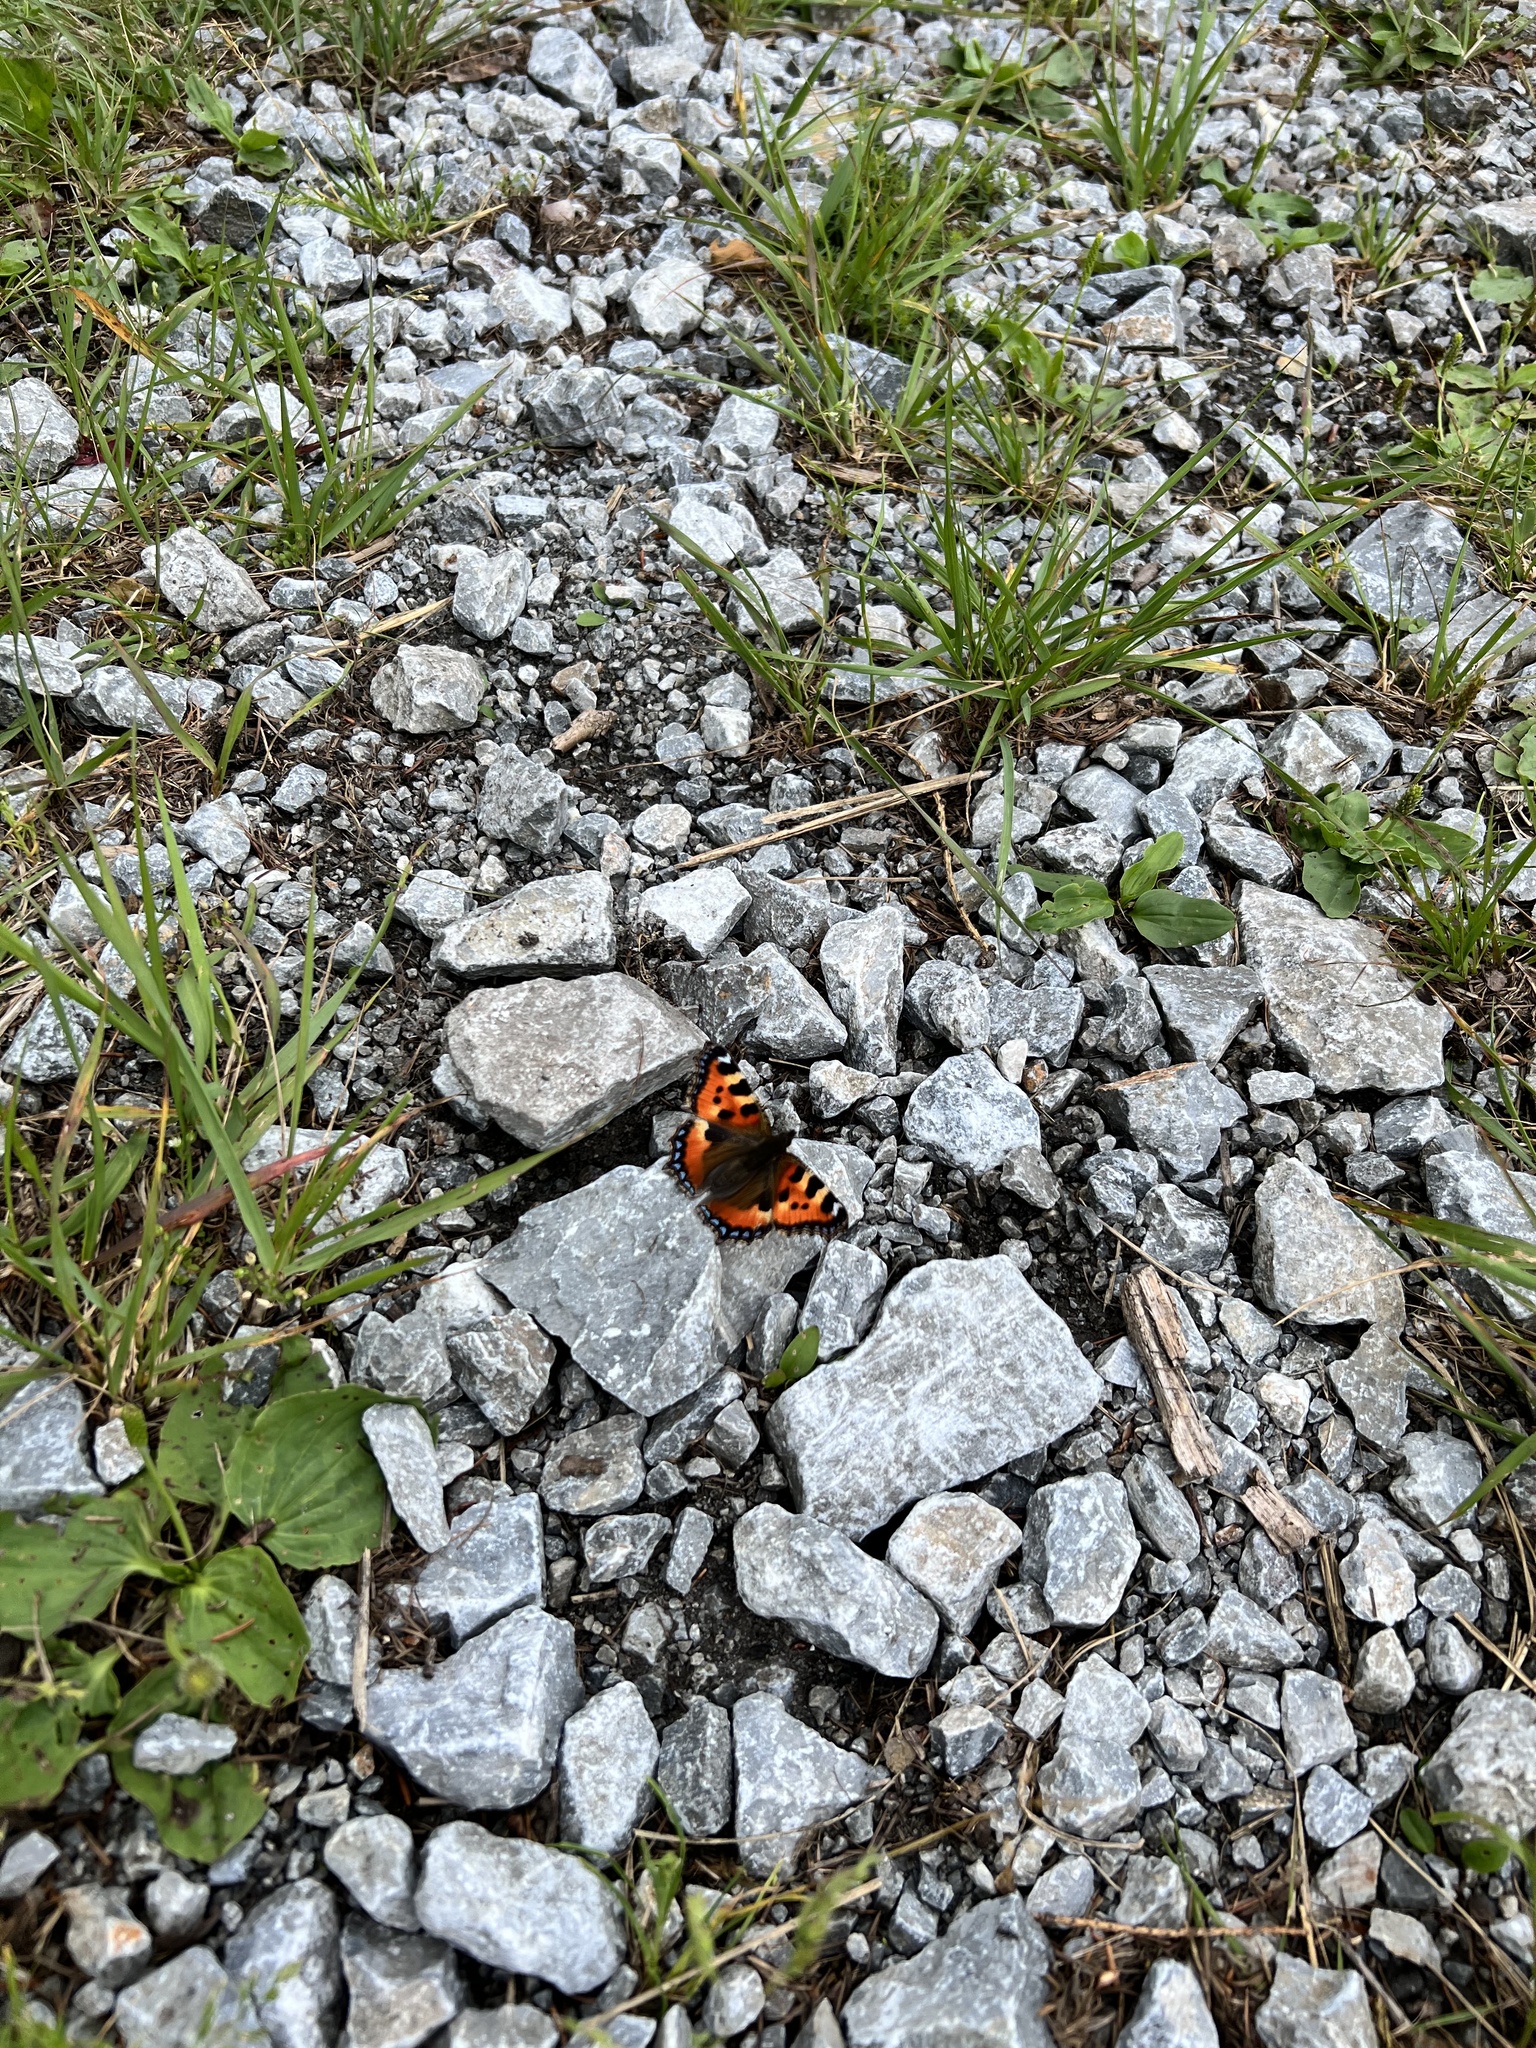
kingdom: Animalia
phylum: Arthropoda
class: Insecta
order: Lepidoptera
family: Nymphalidae
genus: Aglais
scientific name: Aglais urticae
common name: Small tortoiseshell
